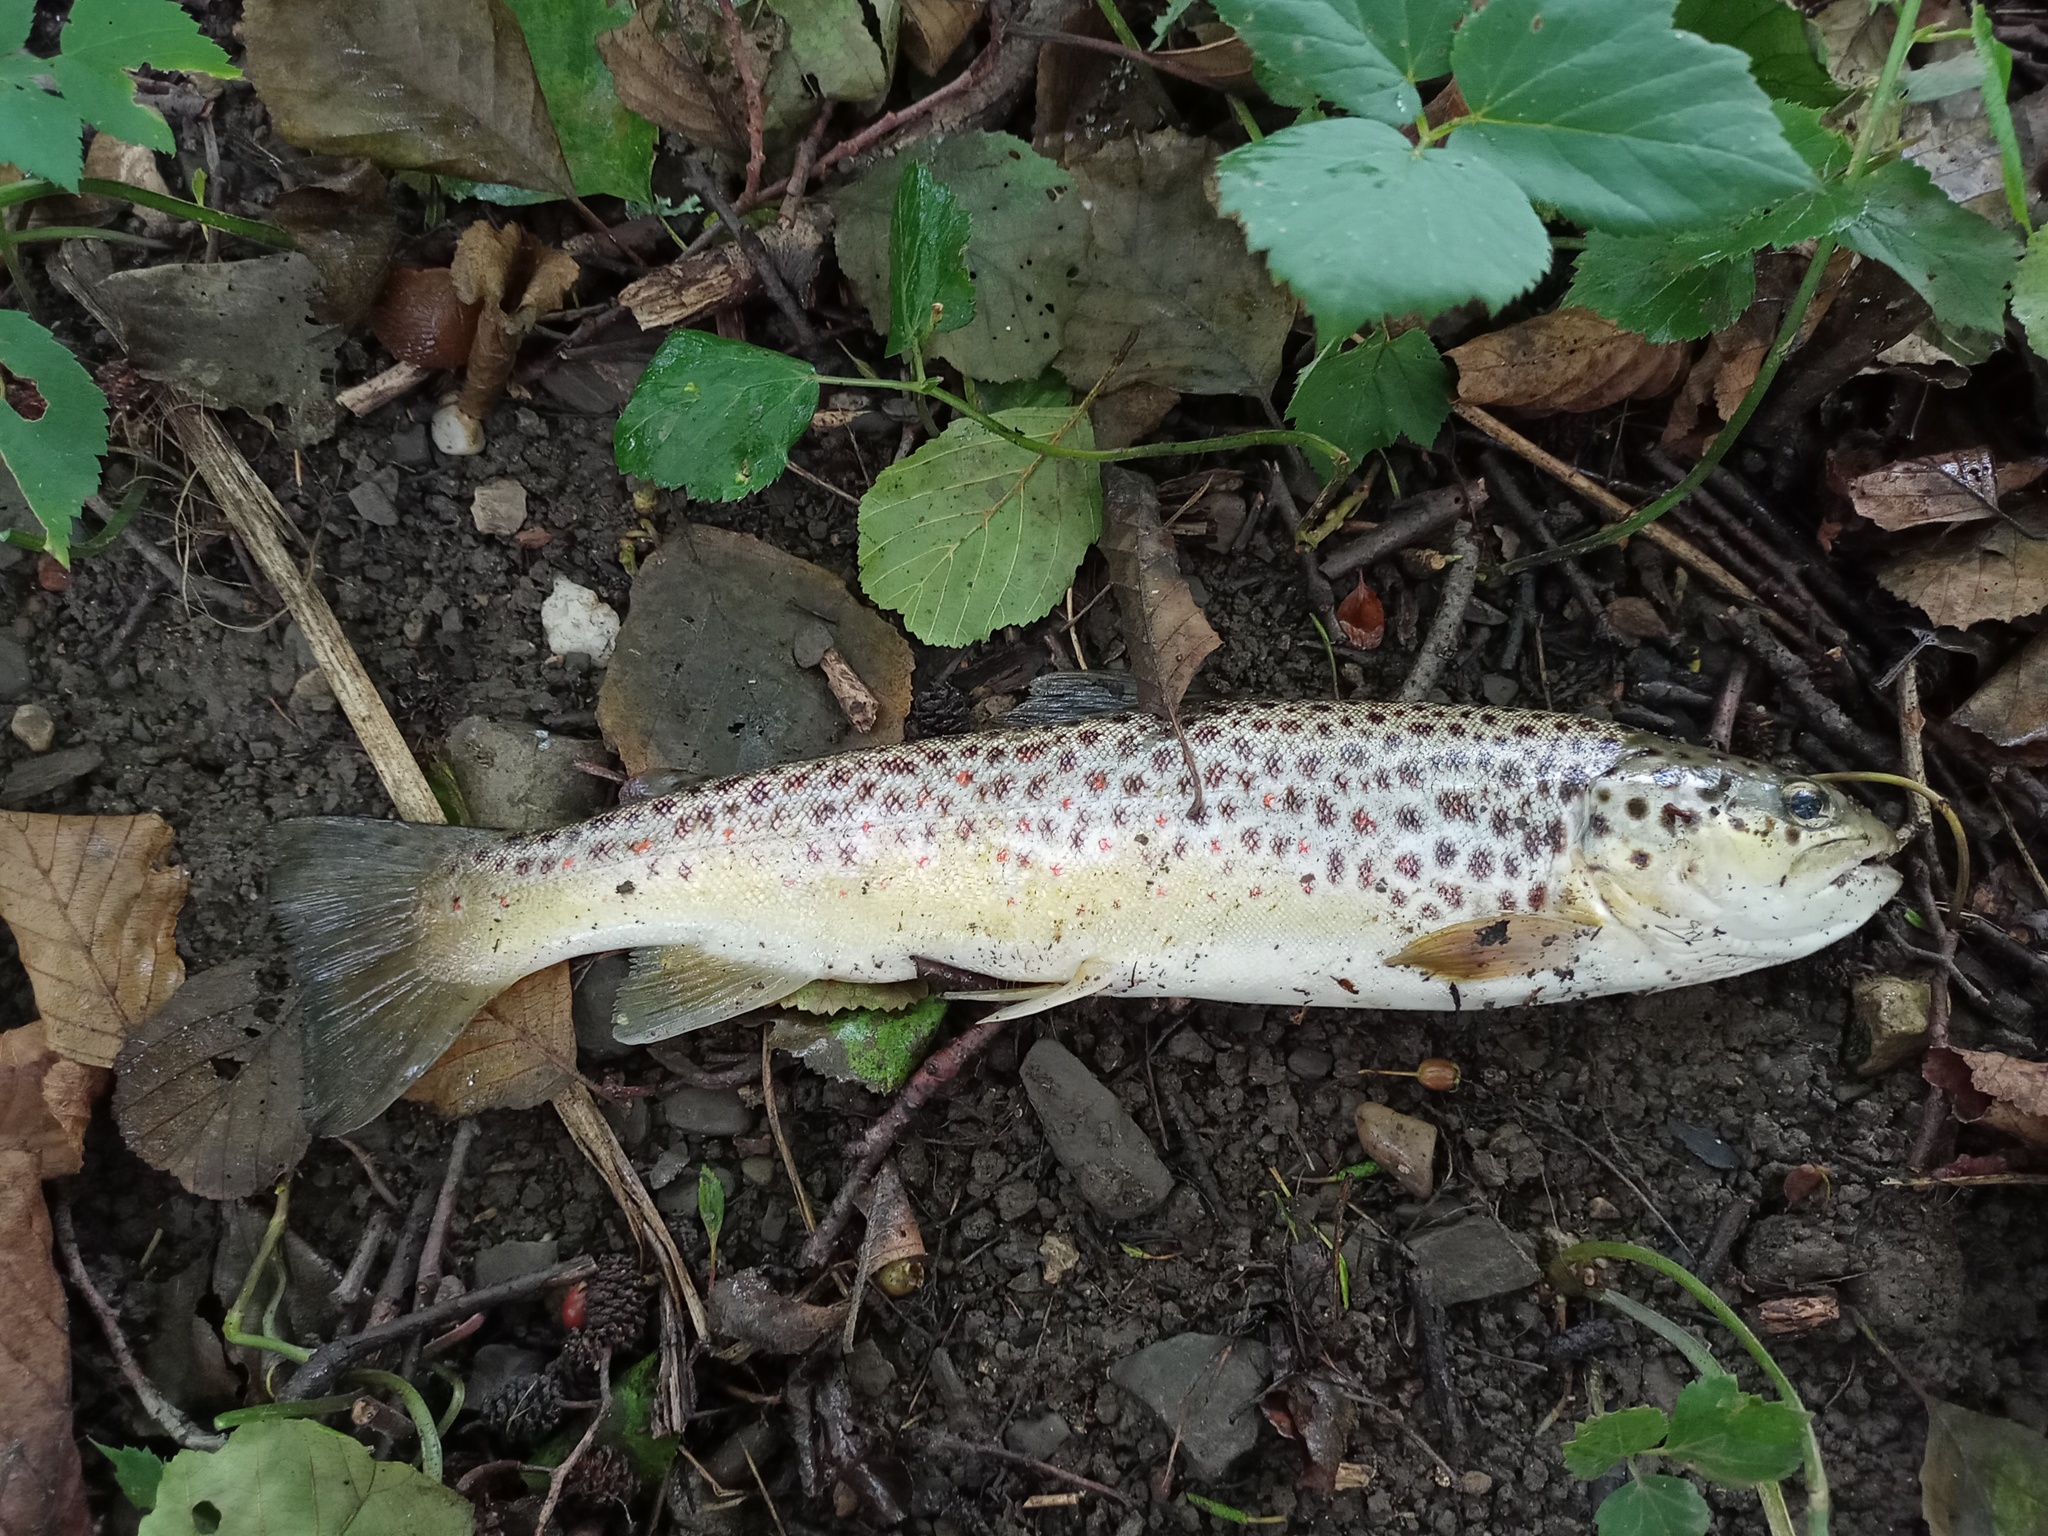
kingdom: Animalia
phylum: Chordata
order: Salmoniformes
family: Salmonidae
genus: Salmo
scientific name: Salmo trutta
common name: Brown trout
